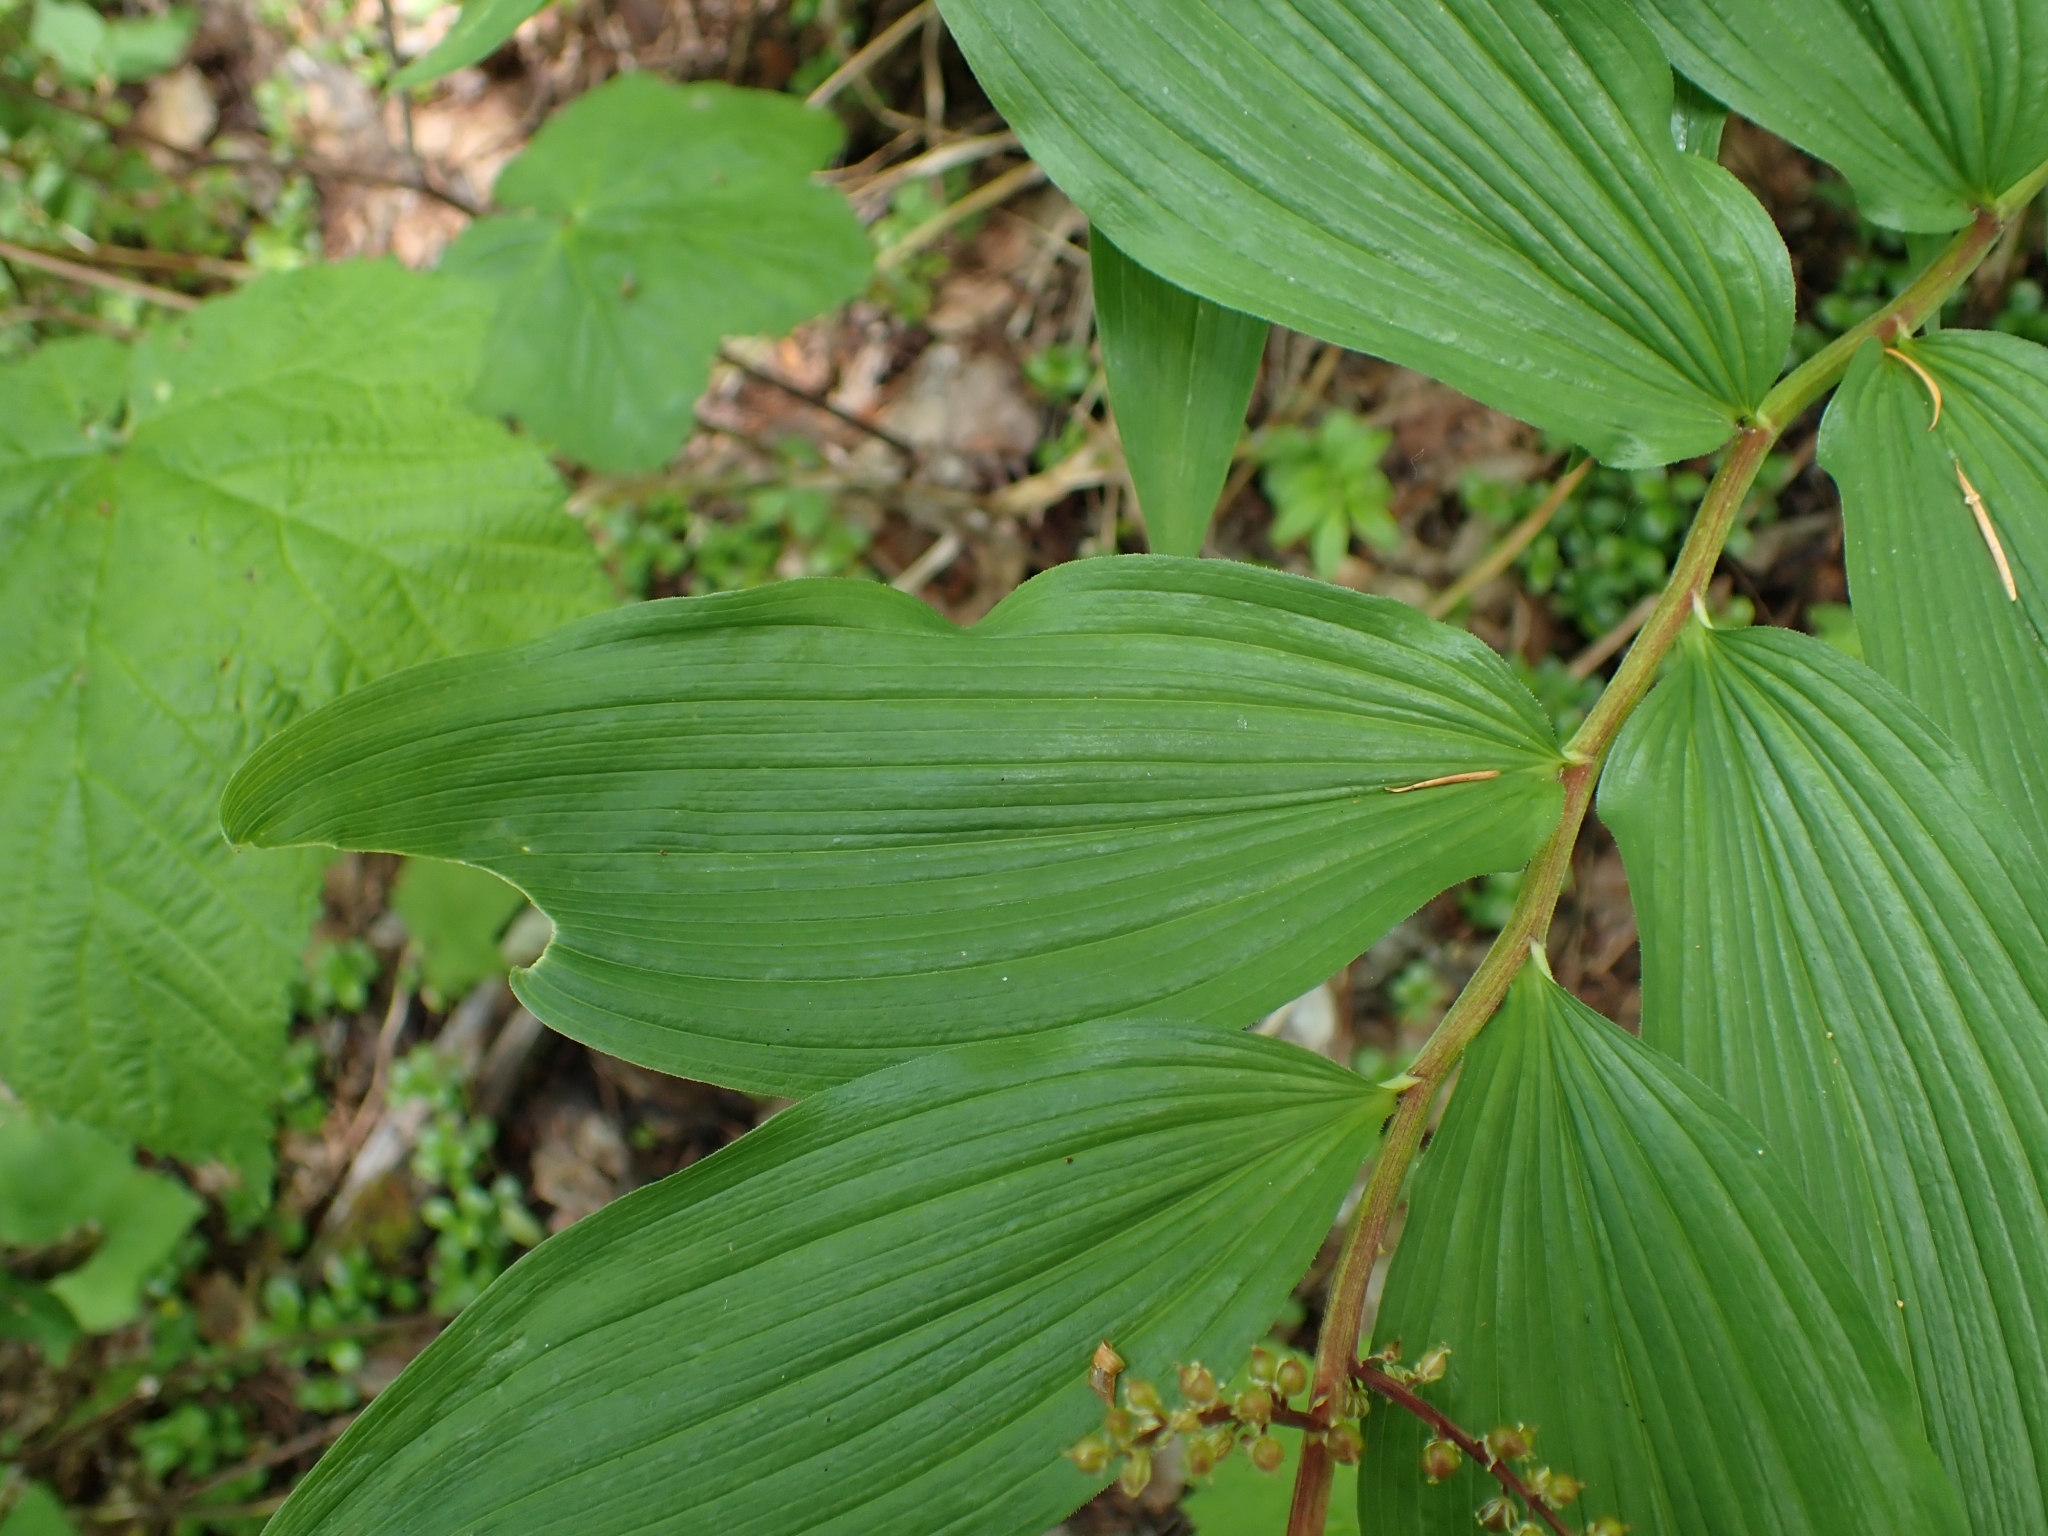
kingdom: Plantae
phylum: Tracheophyta
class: Liliopsida
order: Asparagales
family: Asparagaceae
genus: Maianthemum
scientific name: Maianthemum racemosum
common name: False spikenard
